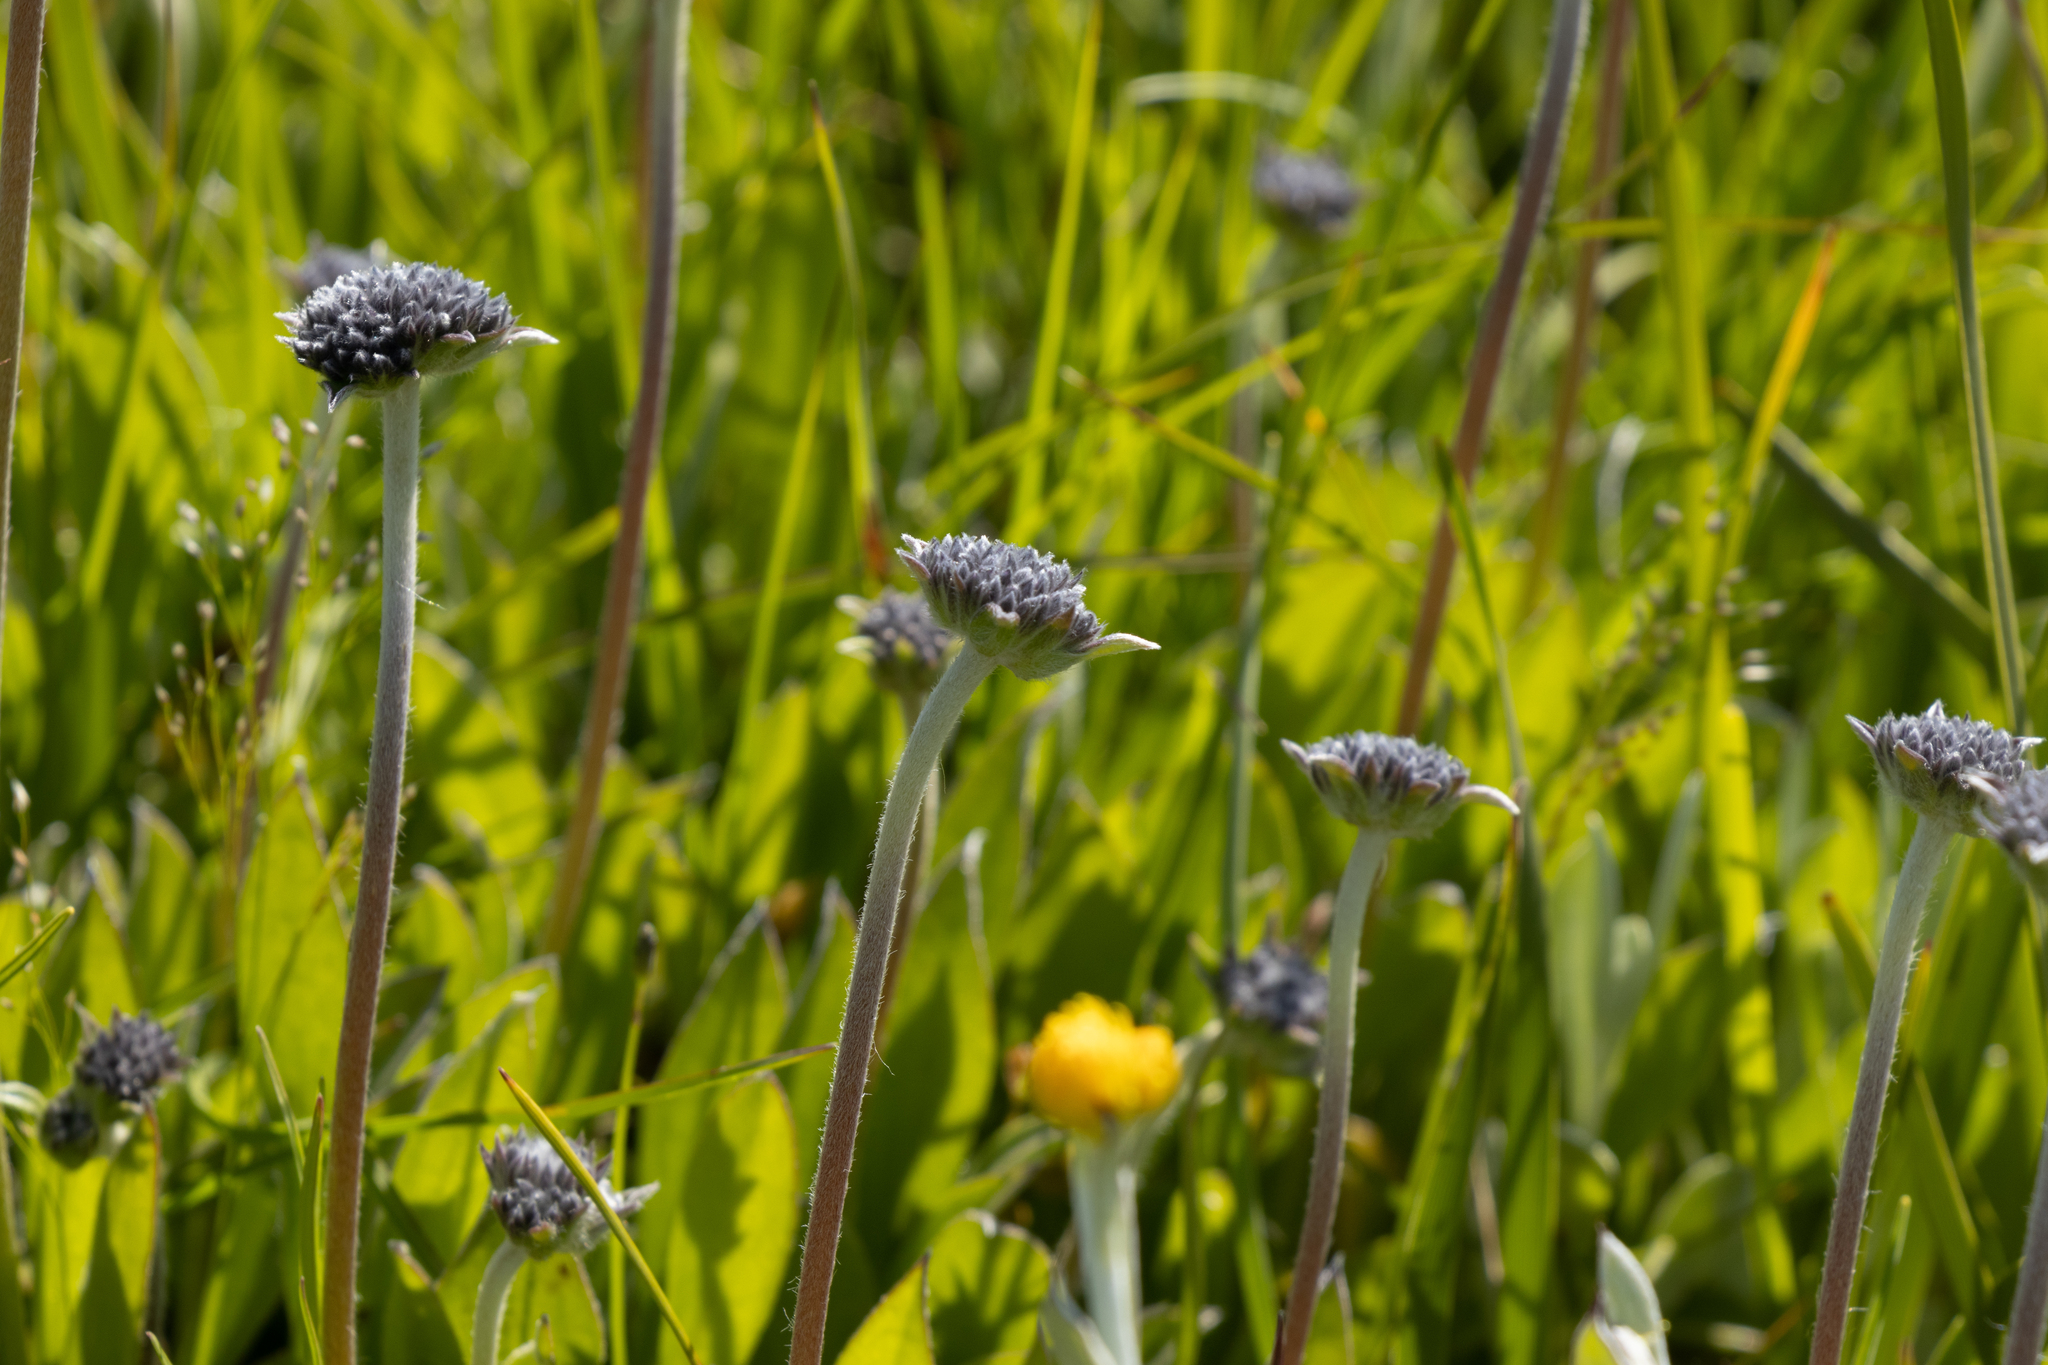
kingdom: Plantae
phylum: Tracheophyta
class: Magnoliopsida
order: Asterales
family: Goodeniaceae
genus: Brunonia
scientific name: Brunonia australis
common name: Blue pincushion
